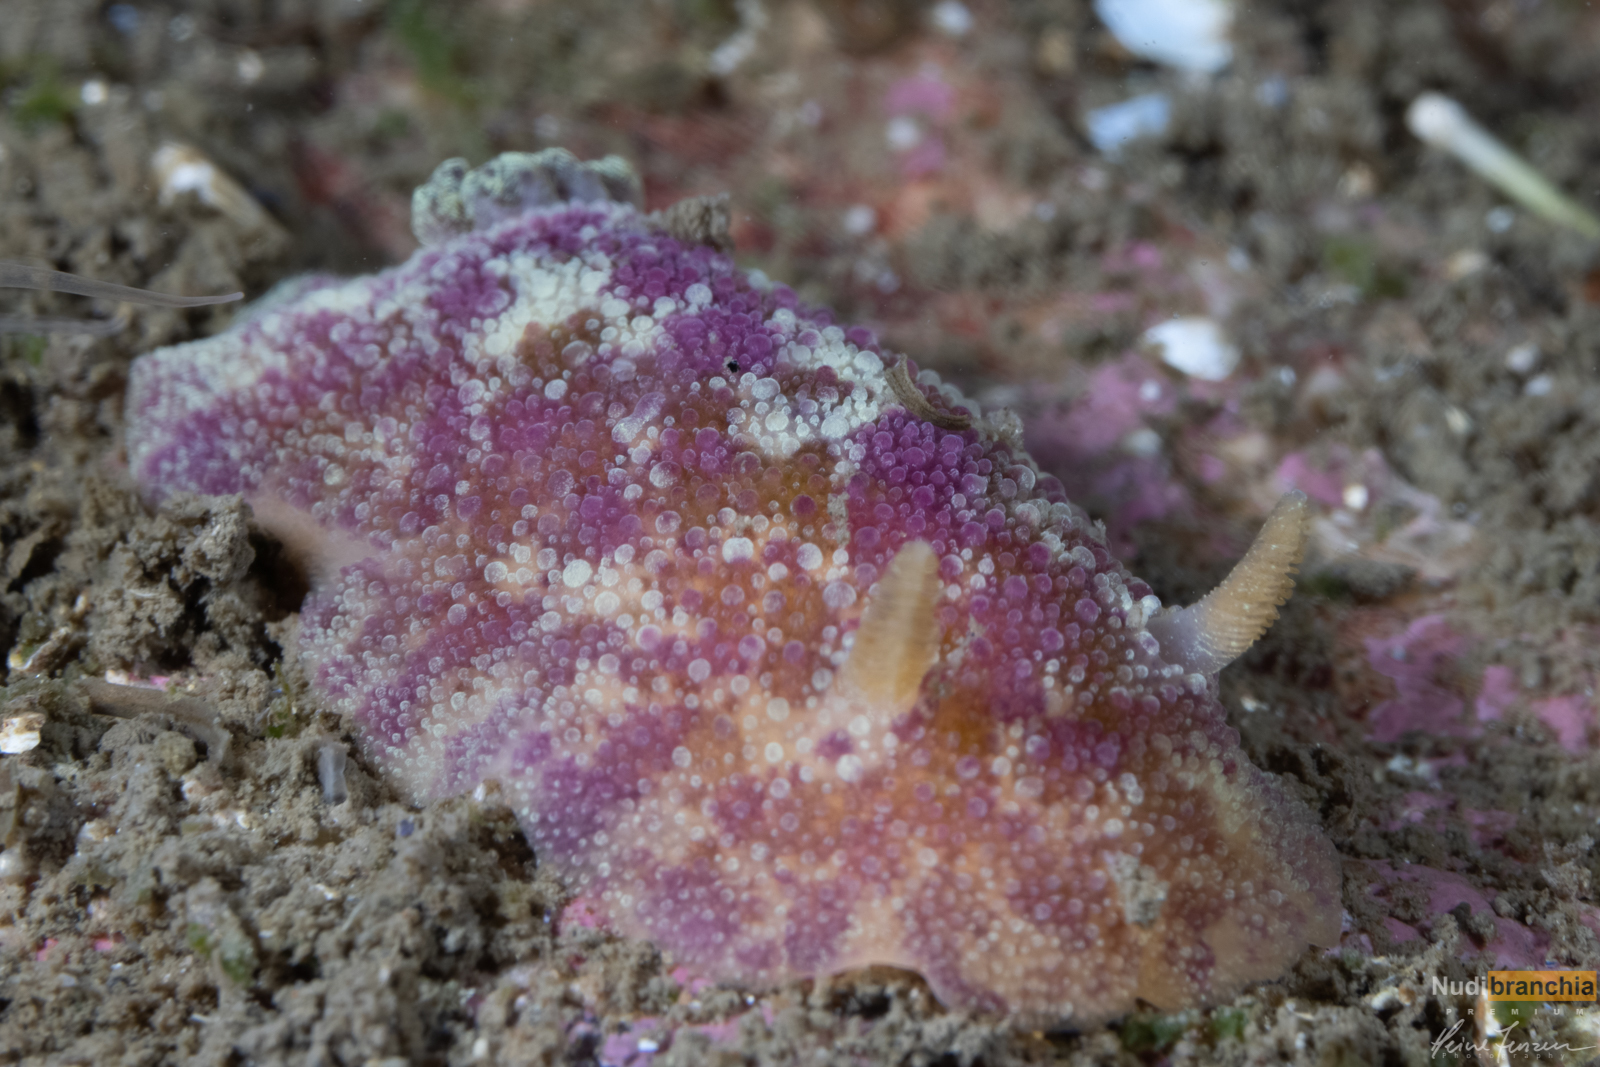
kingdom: Animalia
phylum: Mollusca
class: Gastropoda
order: Nudibranchia
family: Dorididae
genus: Doris
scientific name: Doris pseudoargus
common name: Sea lemon
